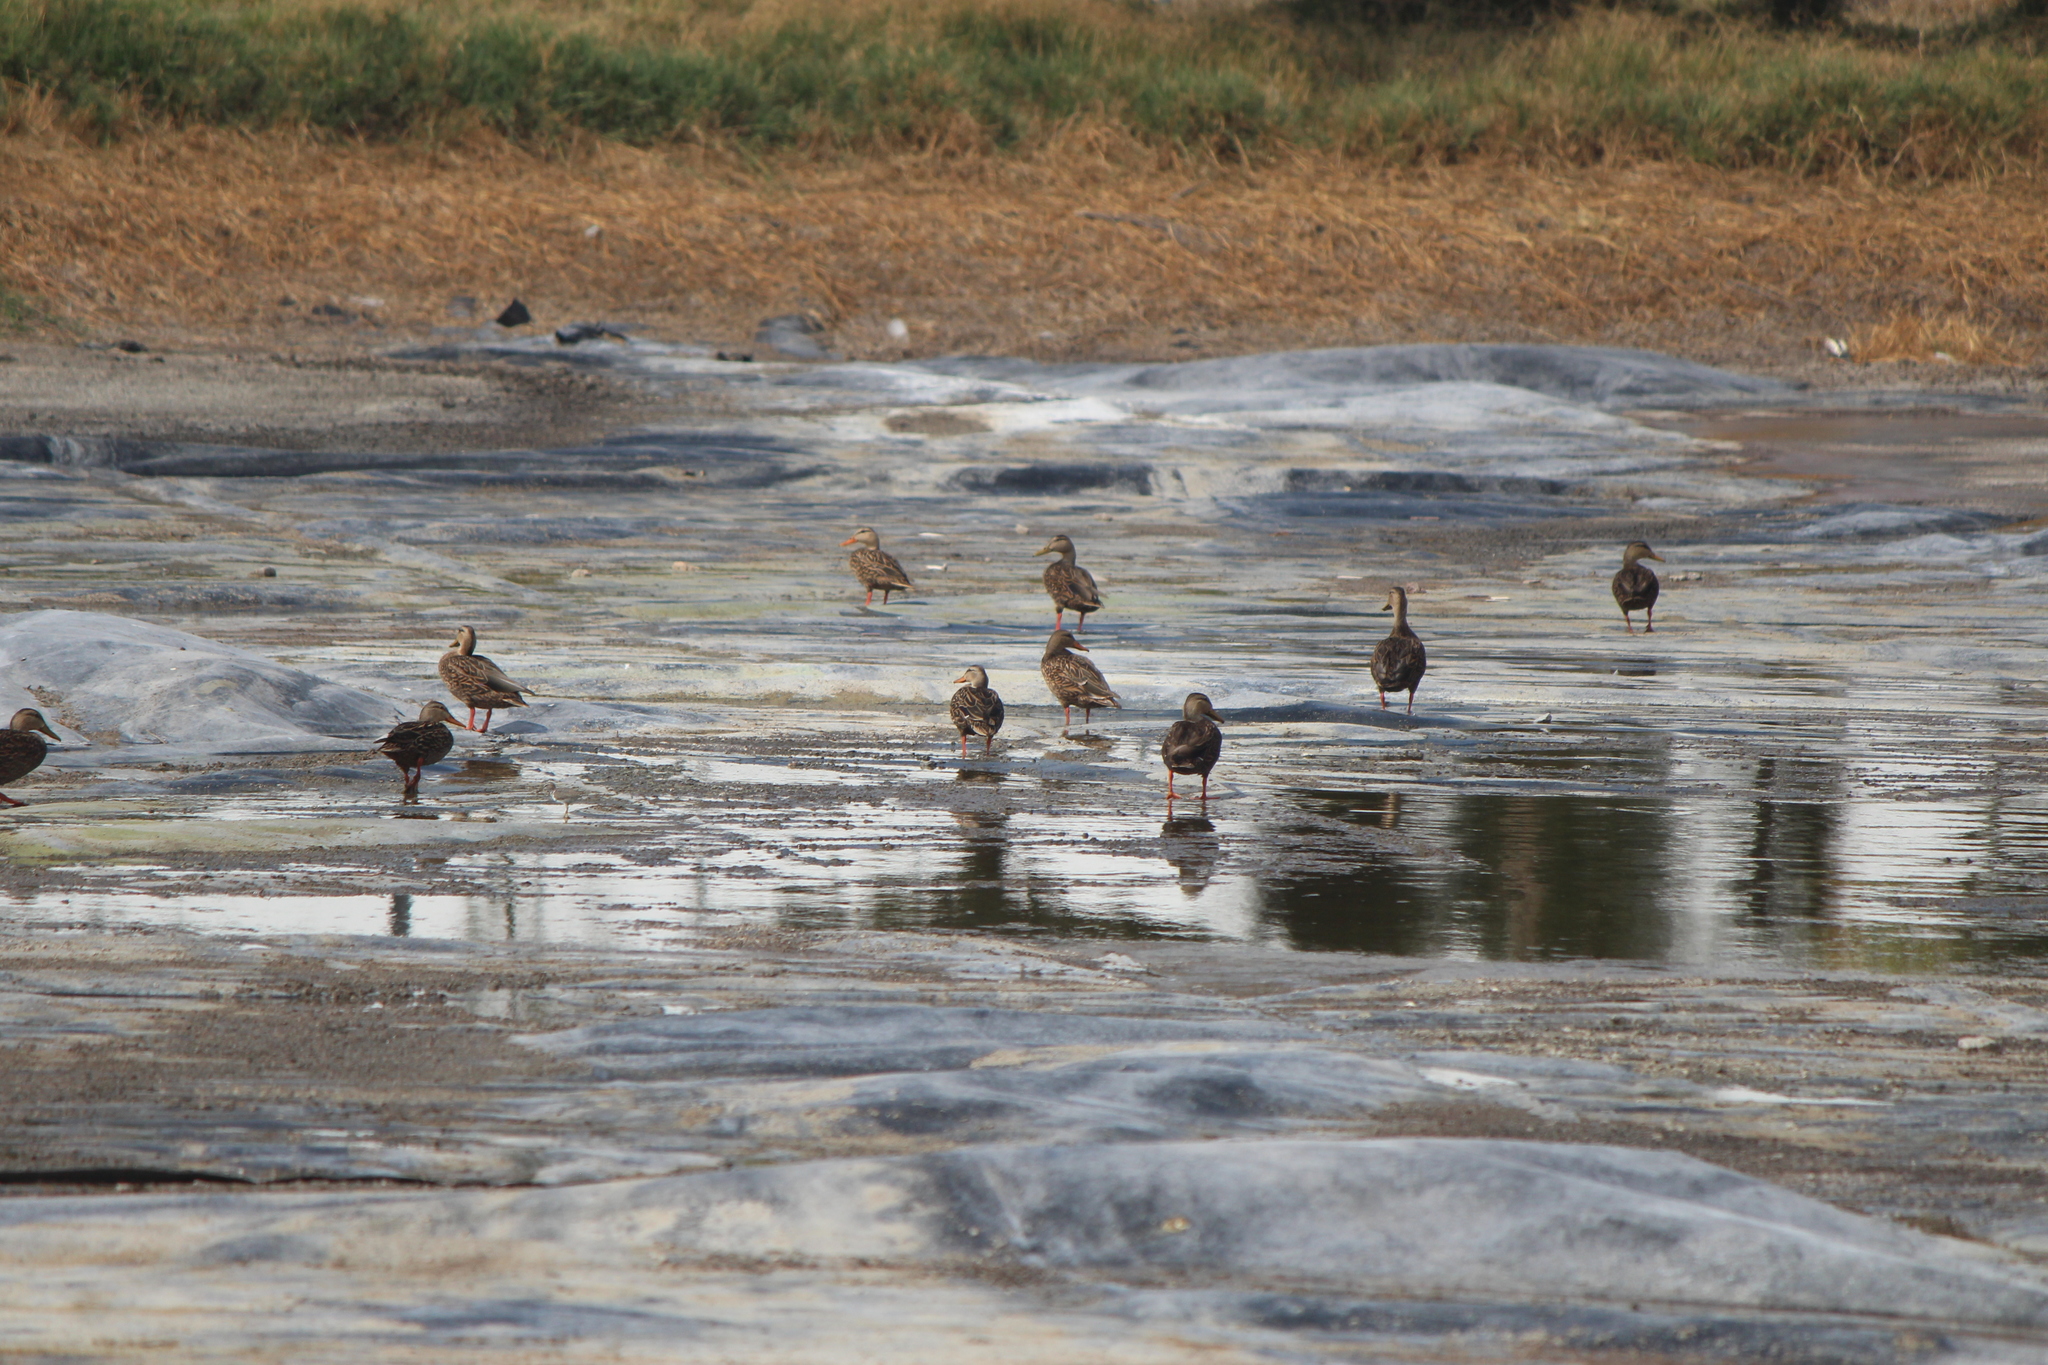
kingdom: Animalia
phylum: Chordata
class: Aves
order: Anseriformes
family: Anatidae
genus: Anas
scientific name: Anas diazi
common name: Mexican duck
